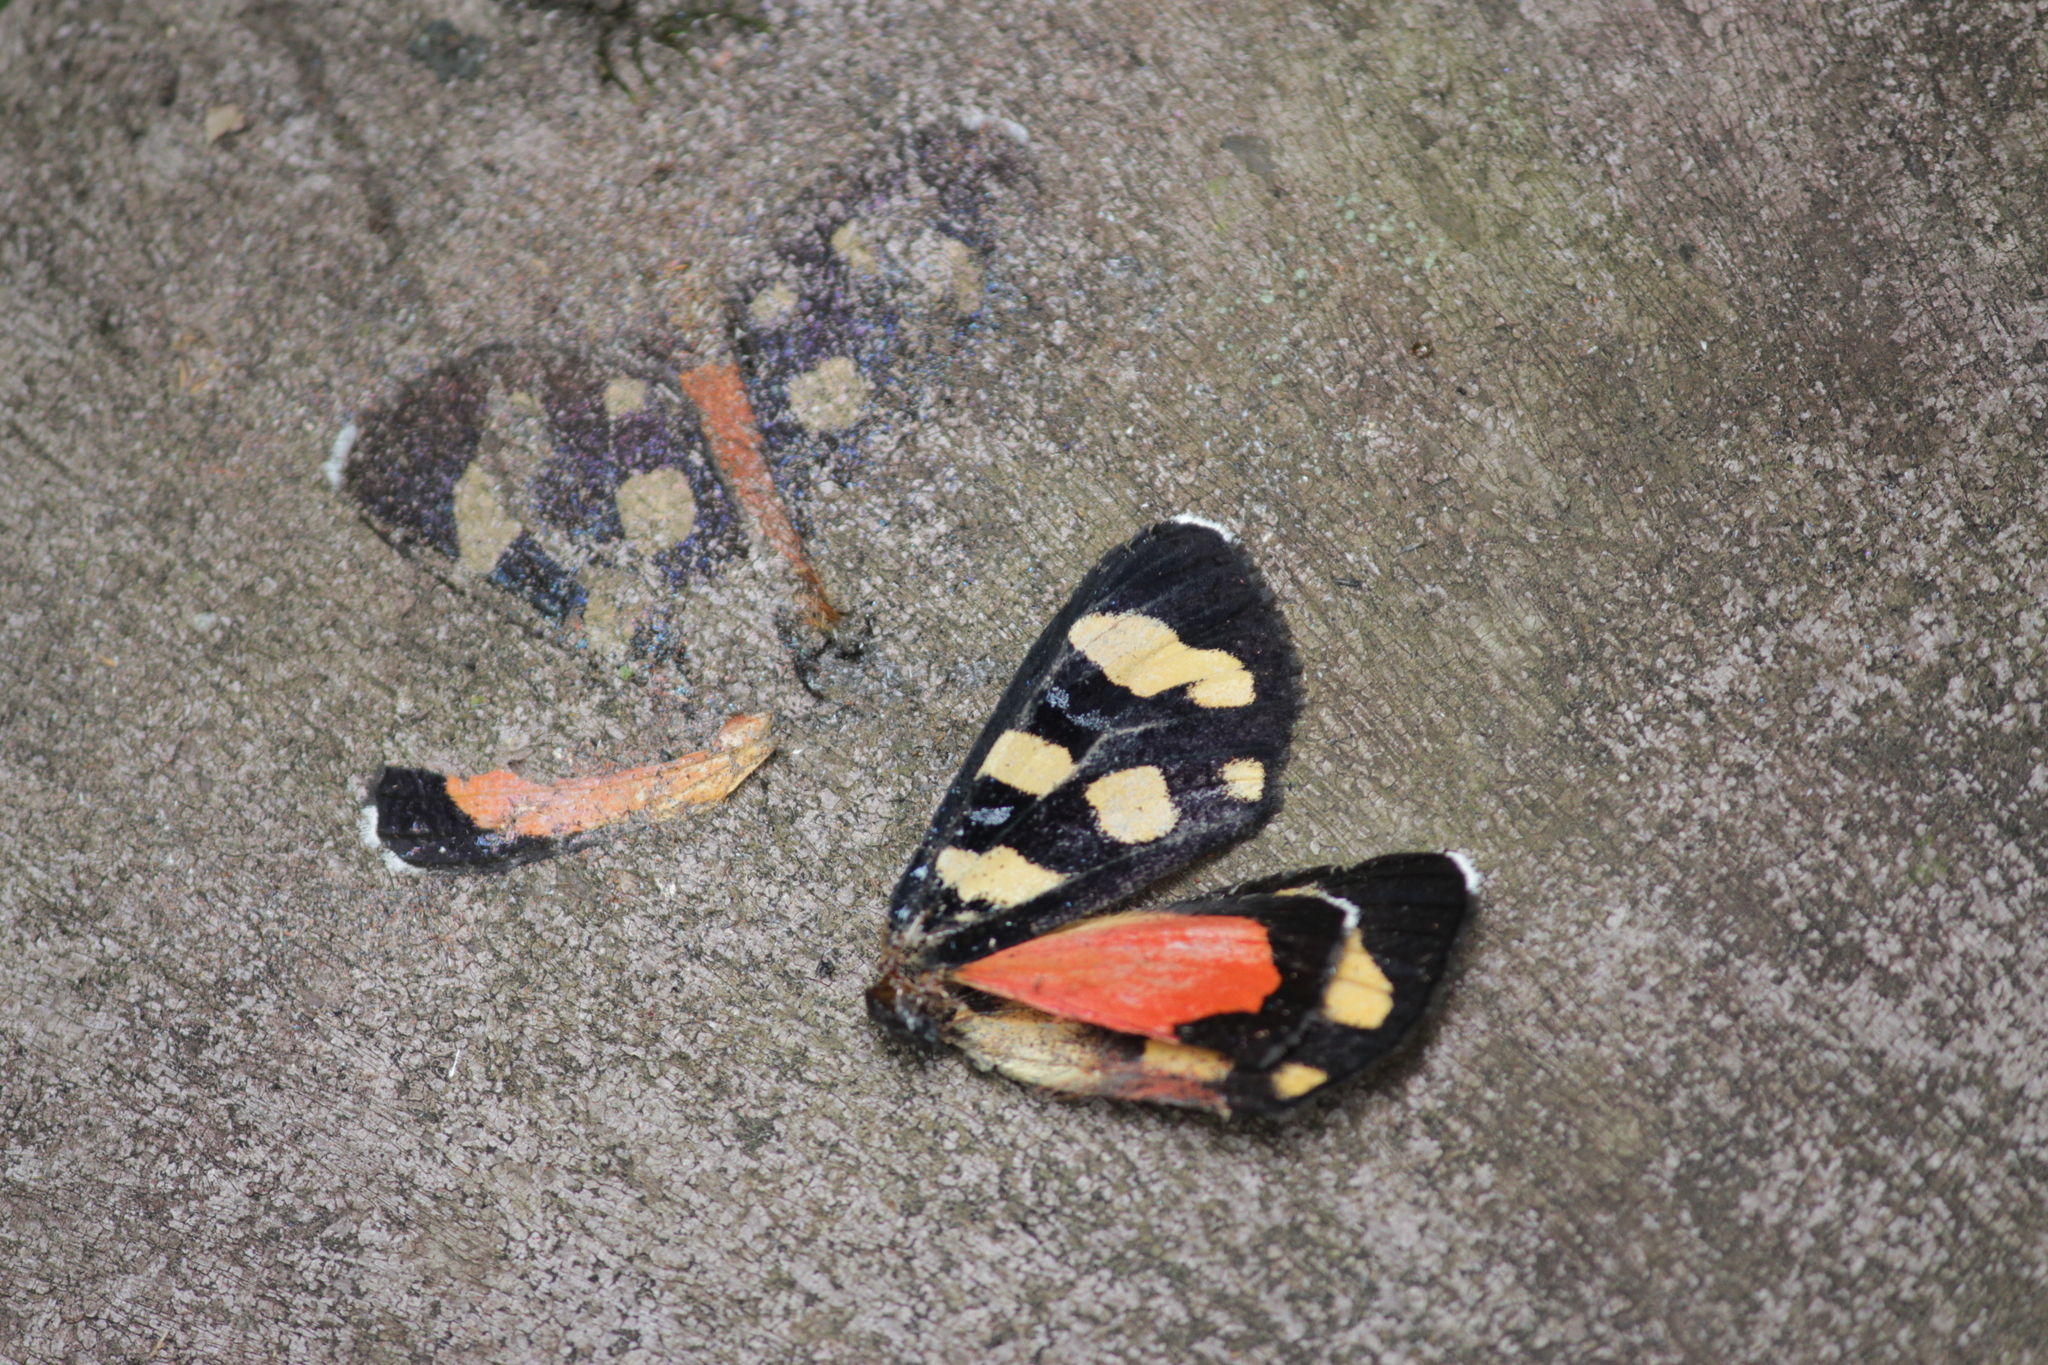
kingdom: Animalia
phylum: Arthropoda
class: Insecta
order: Lepidoptera
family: Noctuidae
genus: Heraclia
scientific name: Heraclia africana
